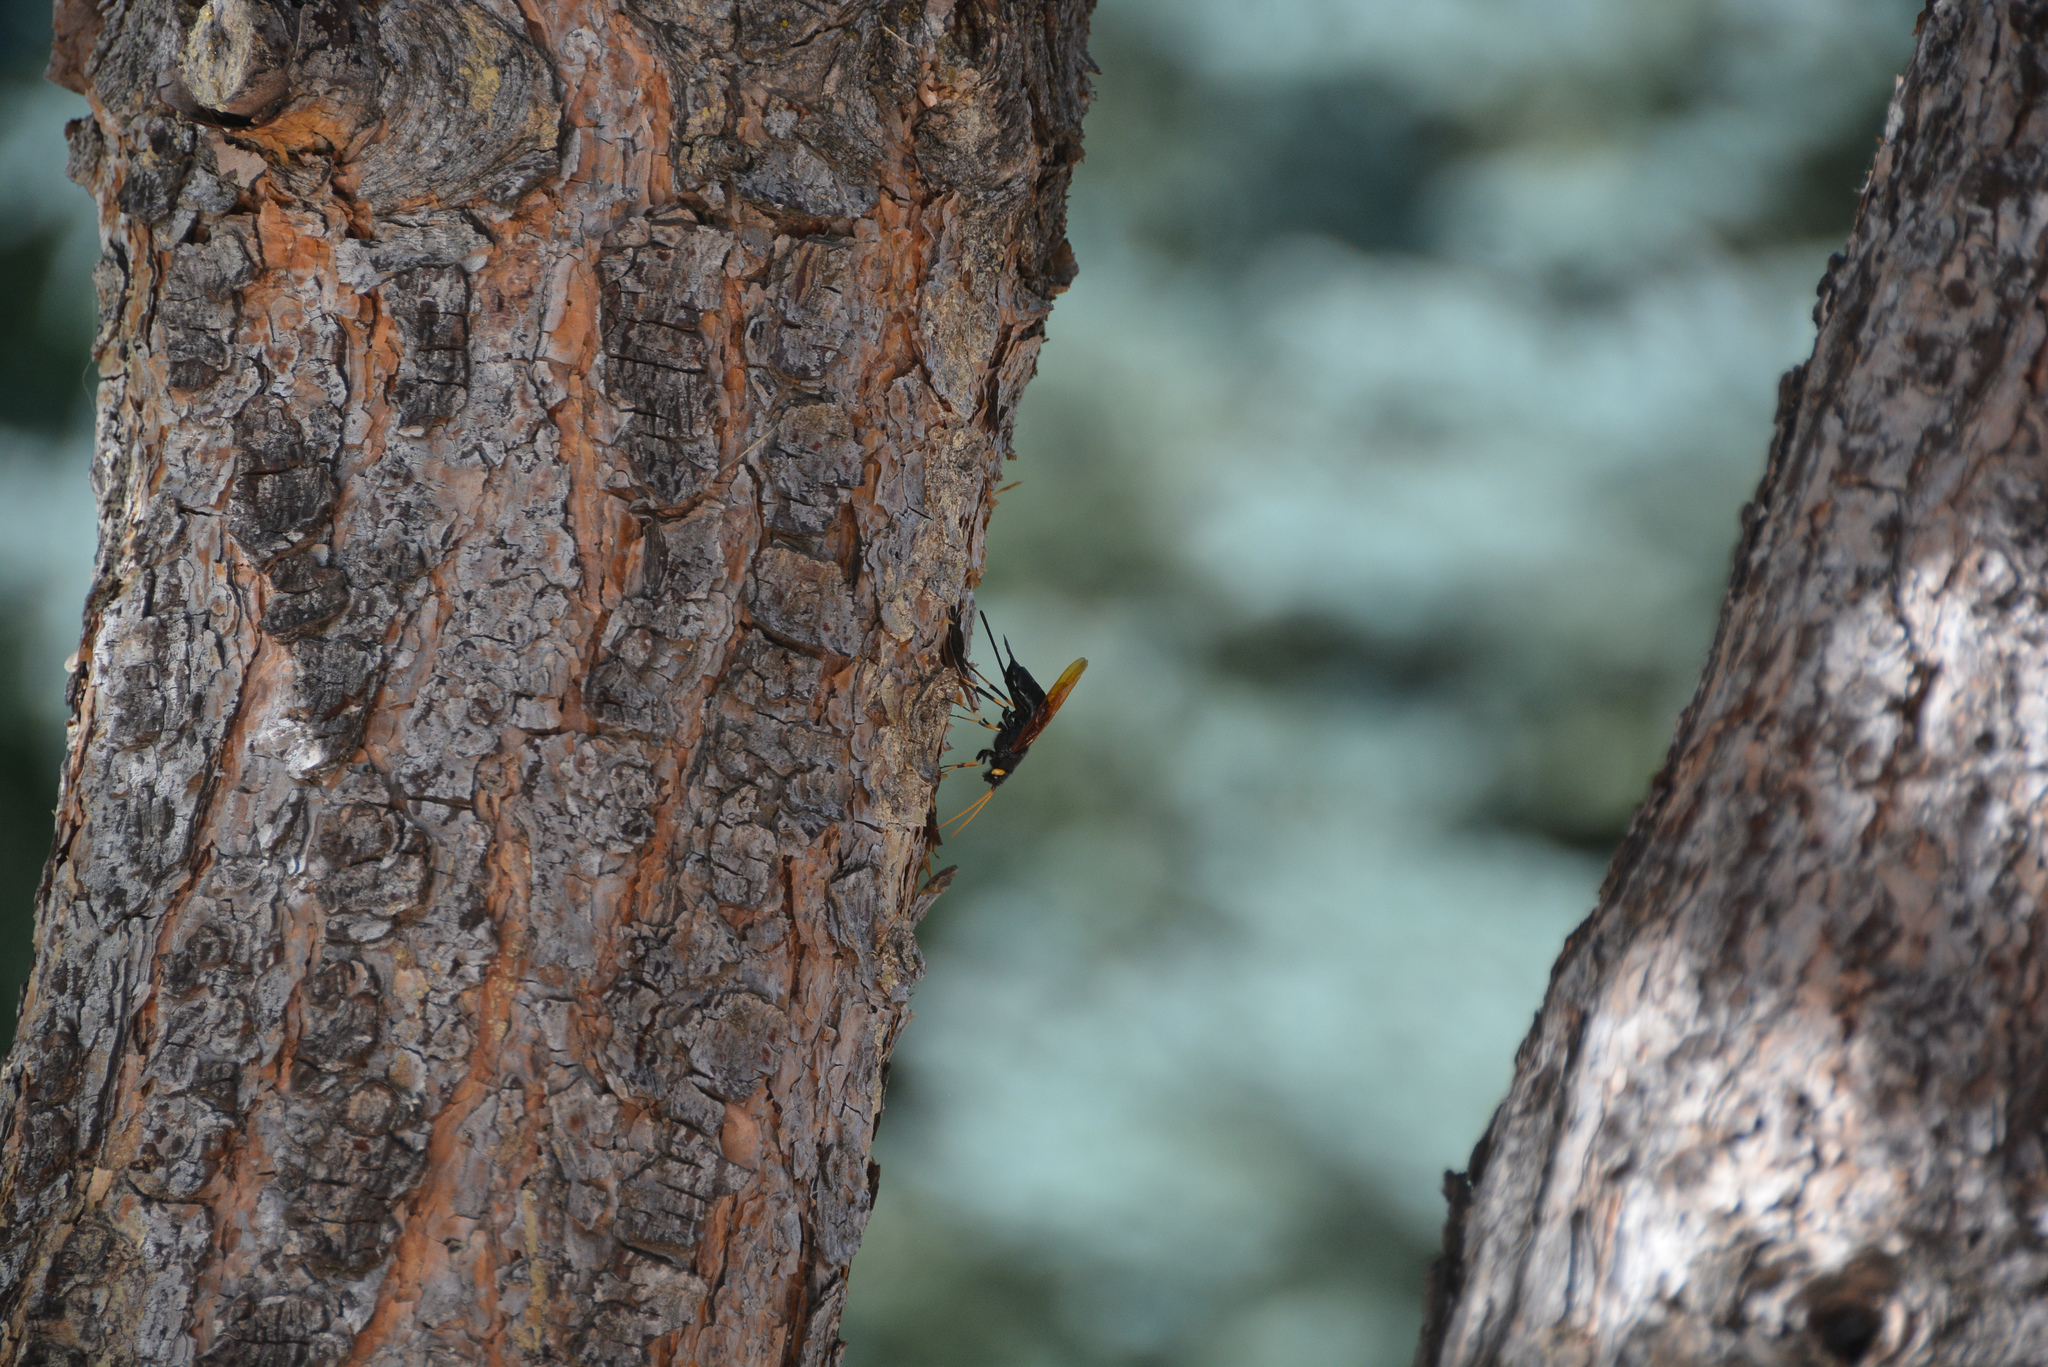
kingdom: Animalia
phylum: Arthropoda
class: Insecta
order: Hymenoptera
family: Siricidae
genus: Urocerus
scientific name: Urocerus californicus
